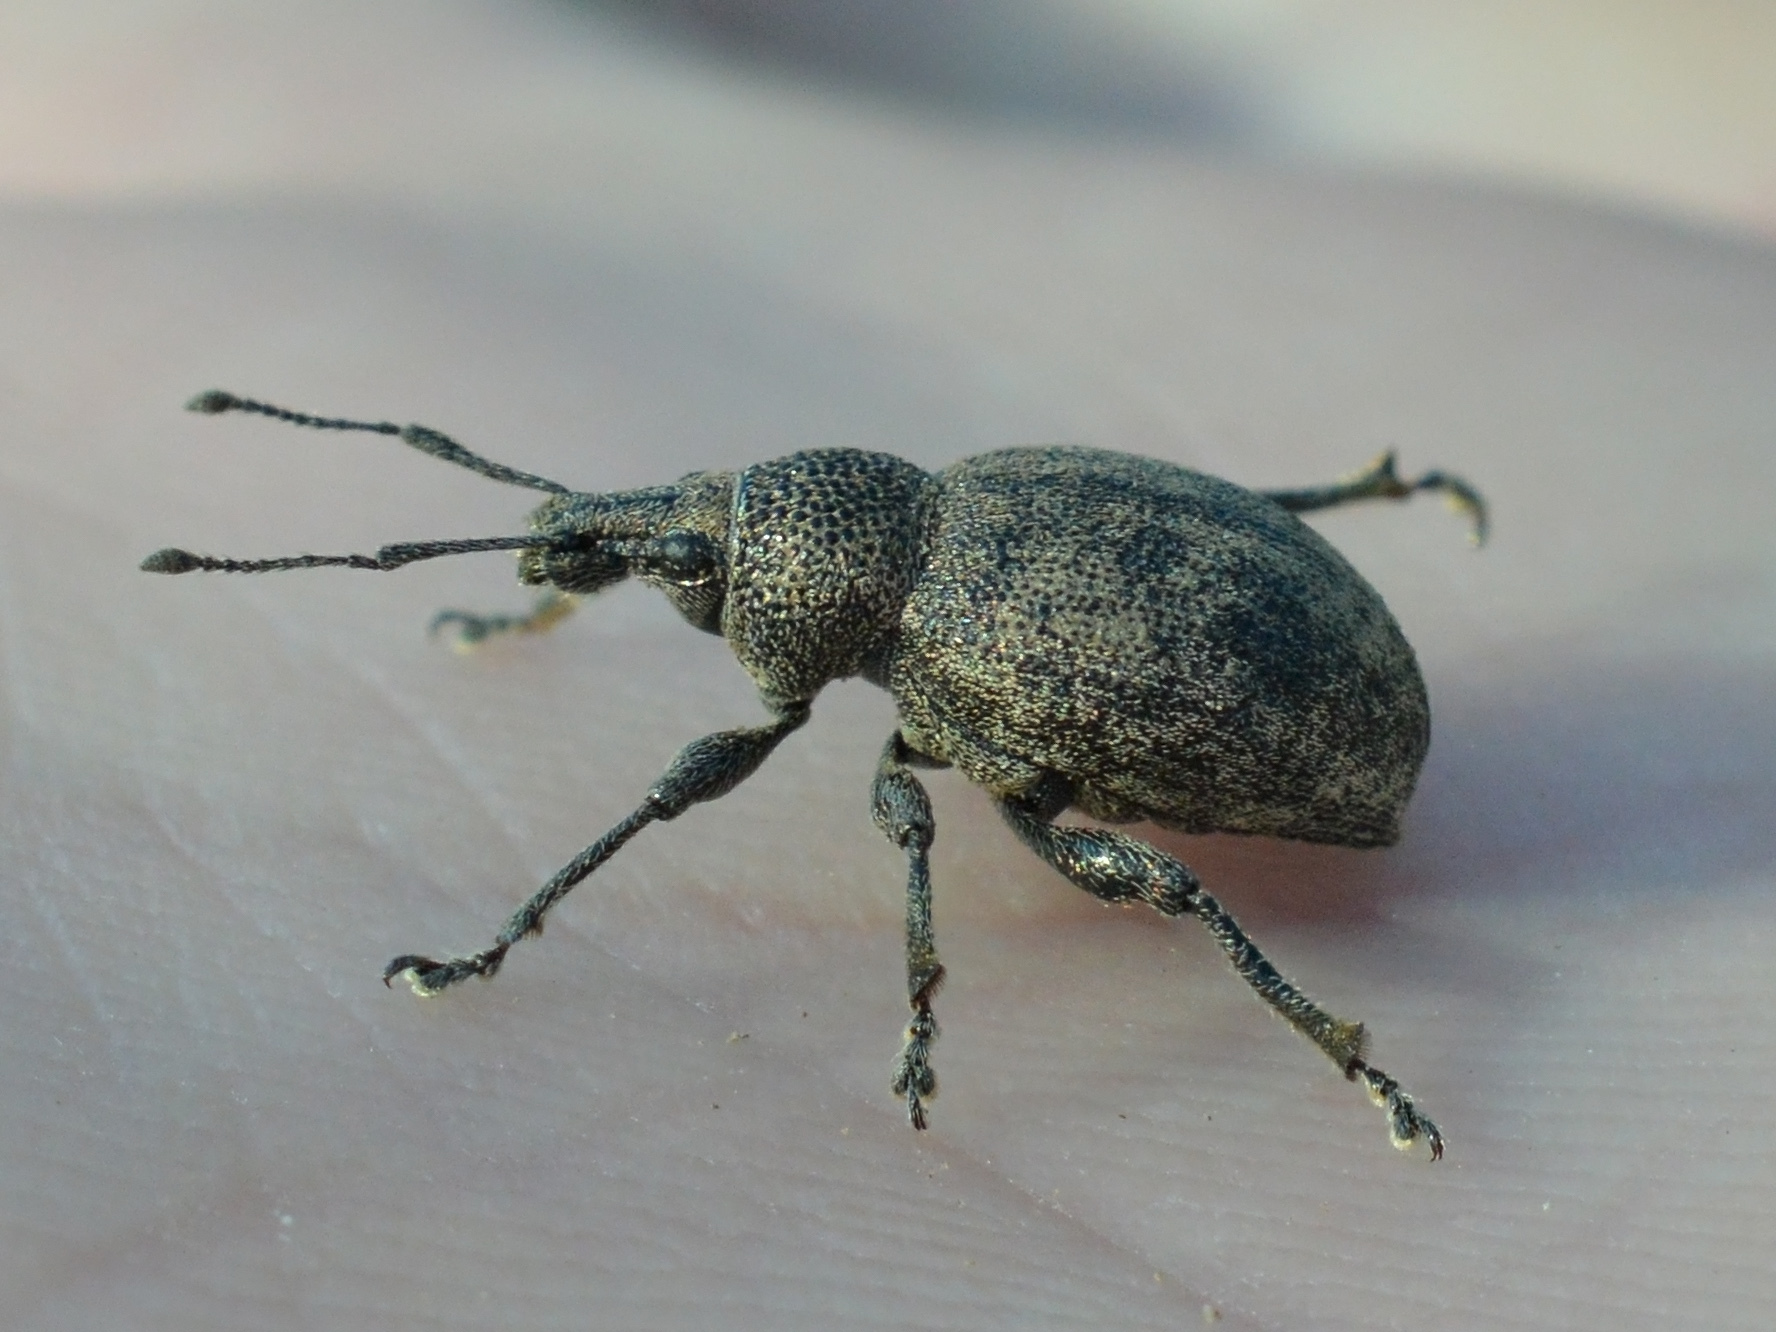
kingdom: Animalia
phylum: Arthropoda
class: Insecta
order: Coleoptera
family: Curculionidae
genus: Otiorhynchus
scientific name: Otiorhynchus ligustici
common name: Weevil
